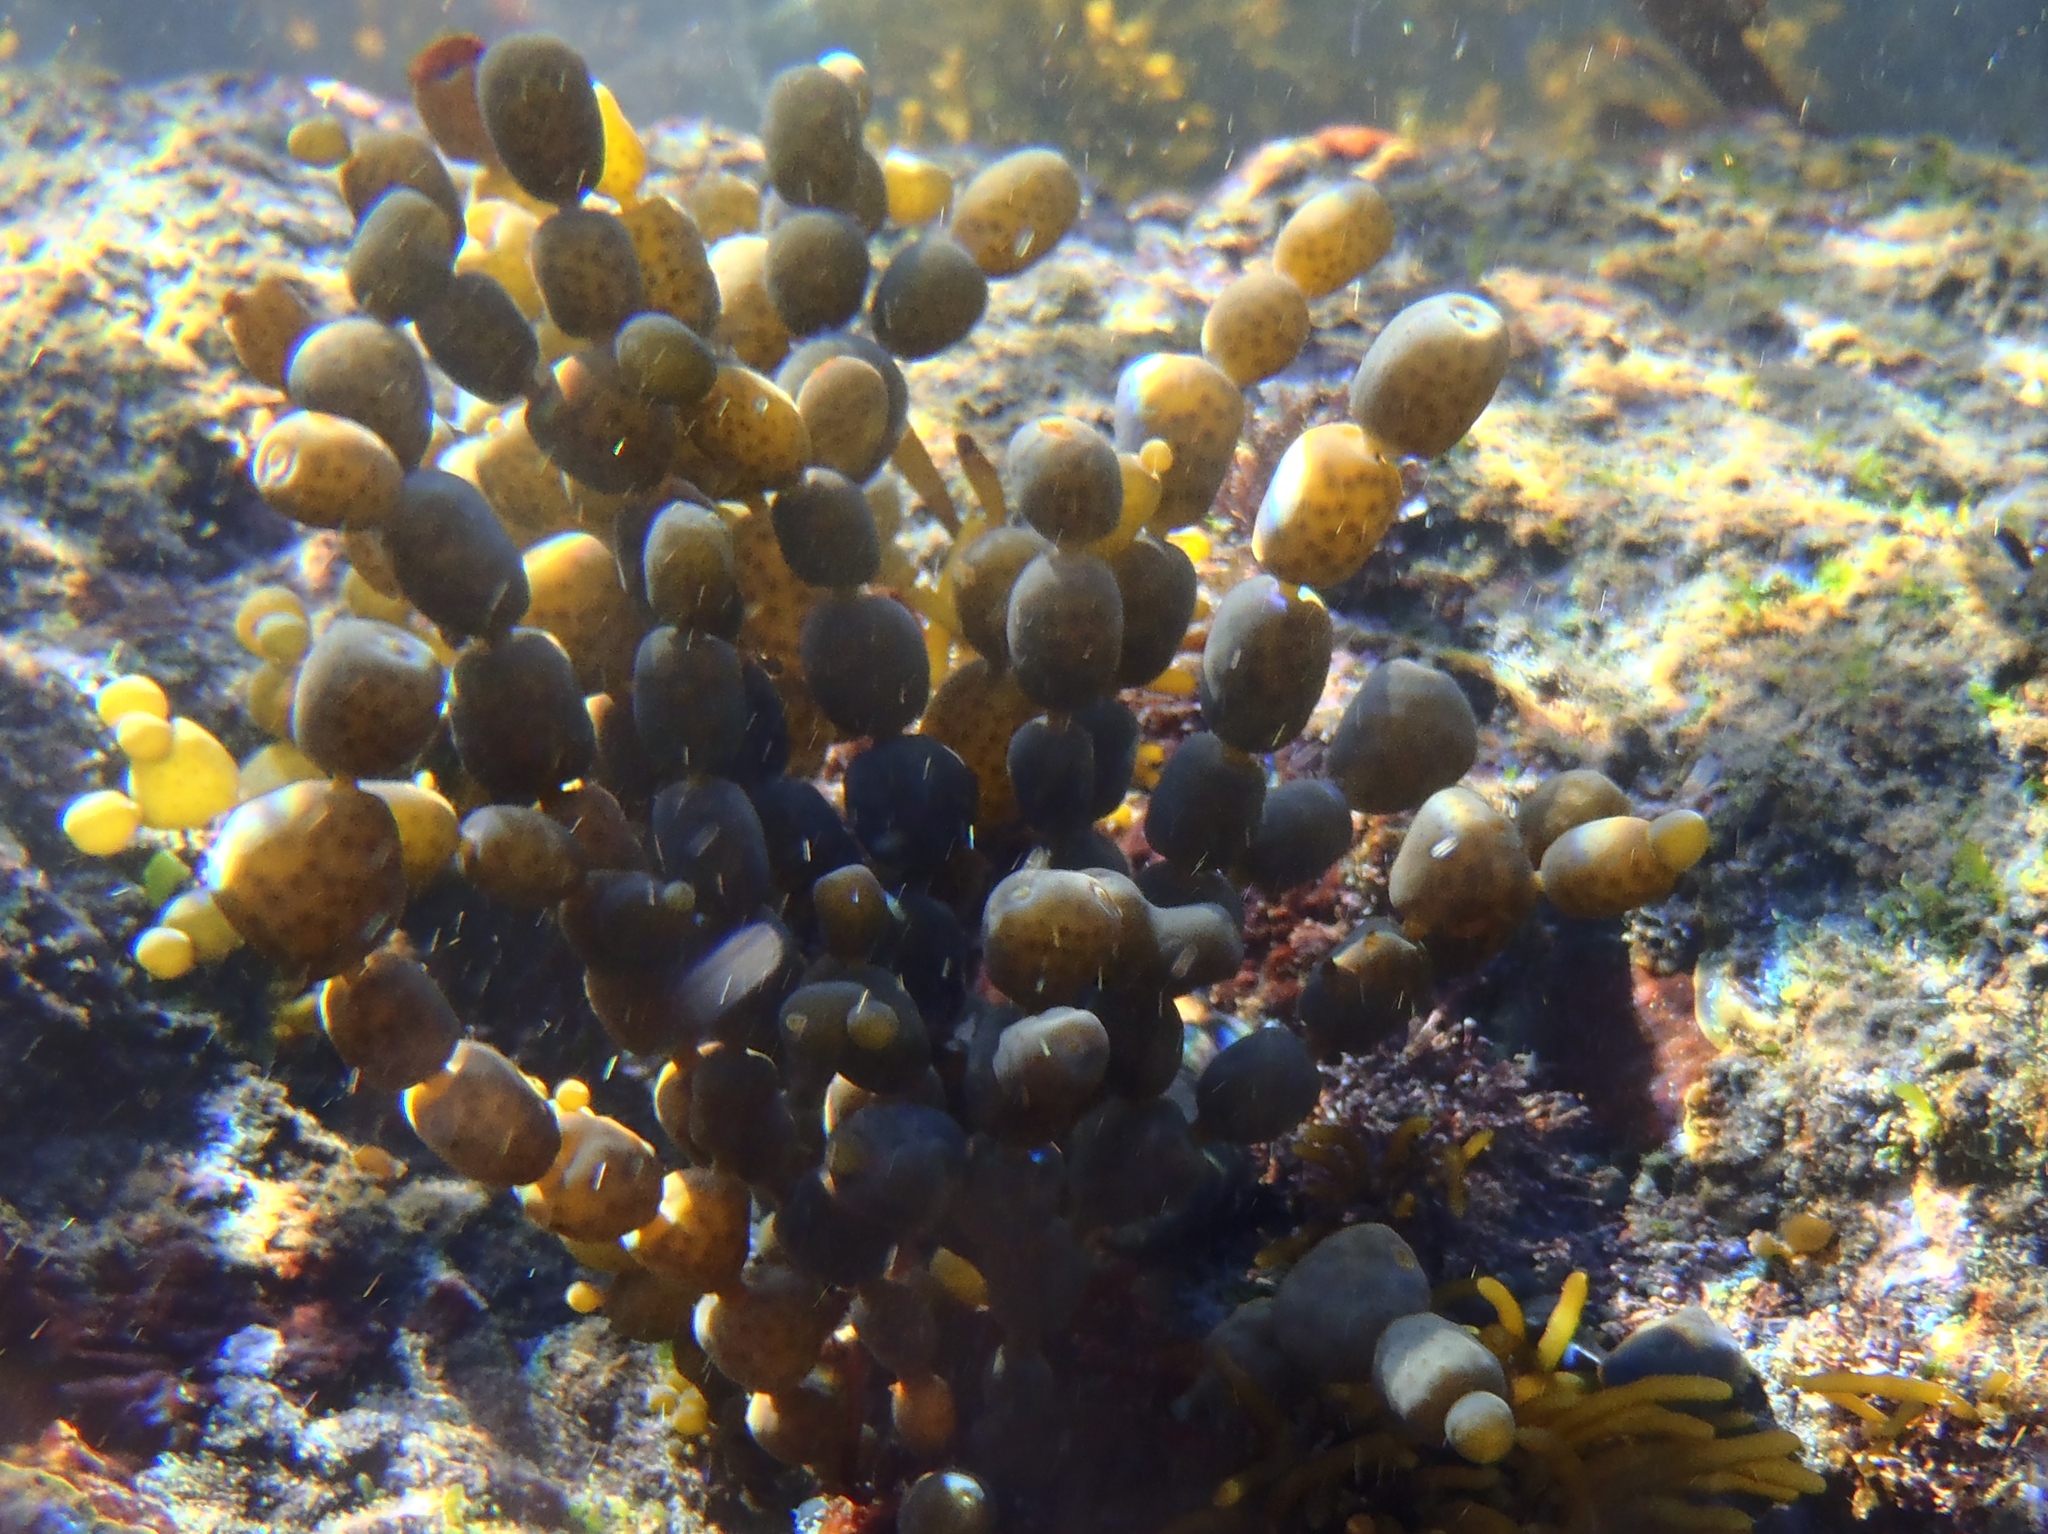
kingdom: Chromista
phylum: Ochrophyta
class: Phaeophyceae
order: Fucales
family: Hormosiraceae
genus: Hormosira
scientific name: Hormosira banksii
